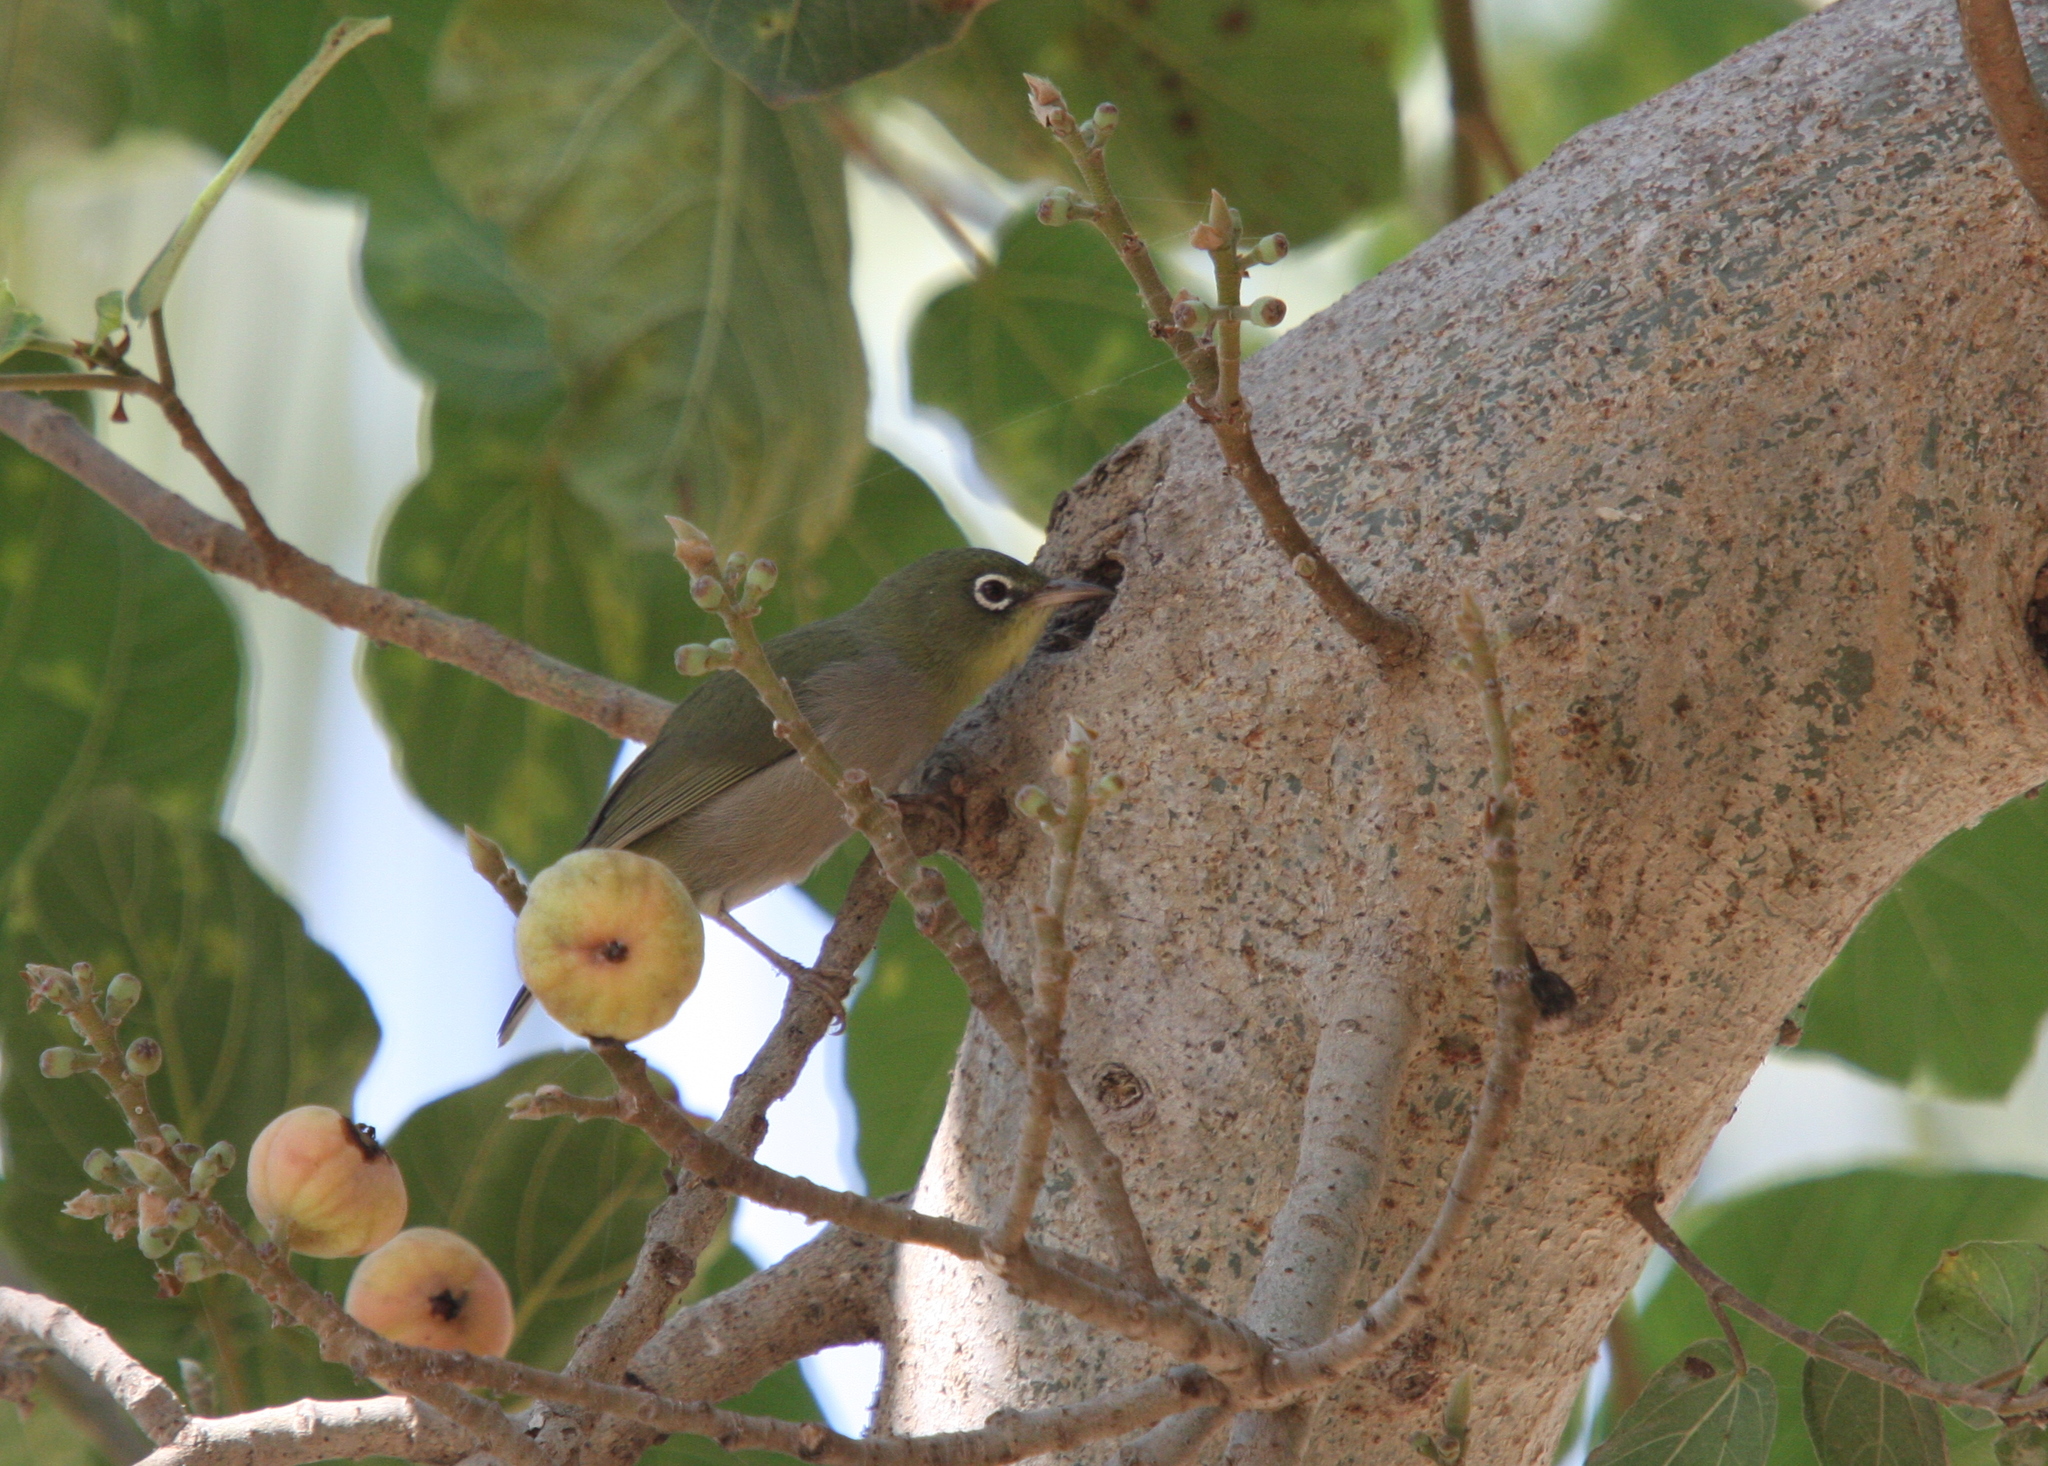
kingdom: Animalia
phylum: Chordata
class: Aves
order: Passeriformes
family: Zosteropidae
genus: Zosterops
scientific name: Zosterops abyssinicus
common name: Abyssinian white-eye
